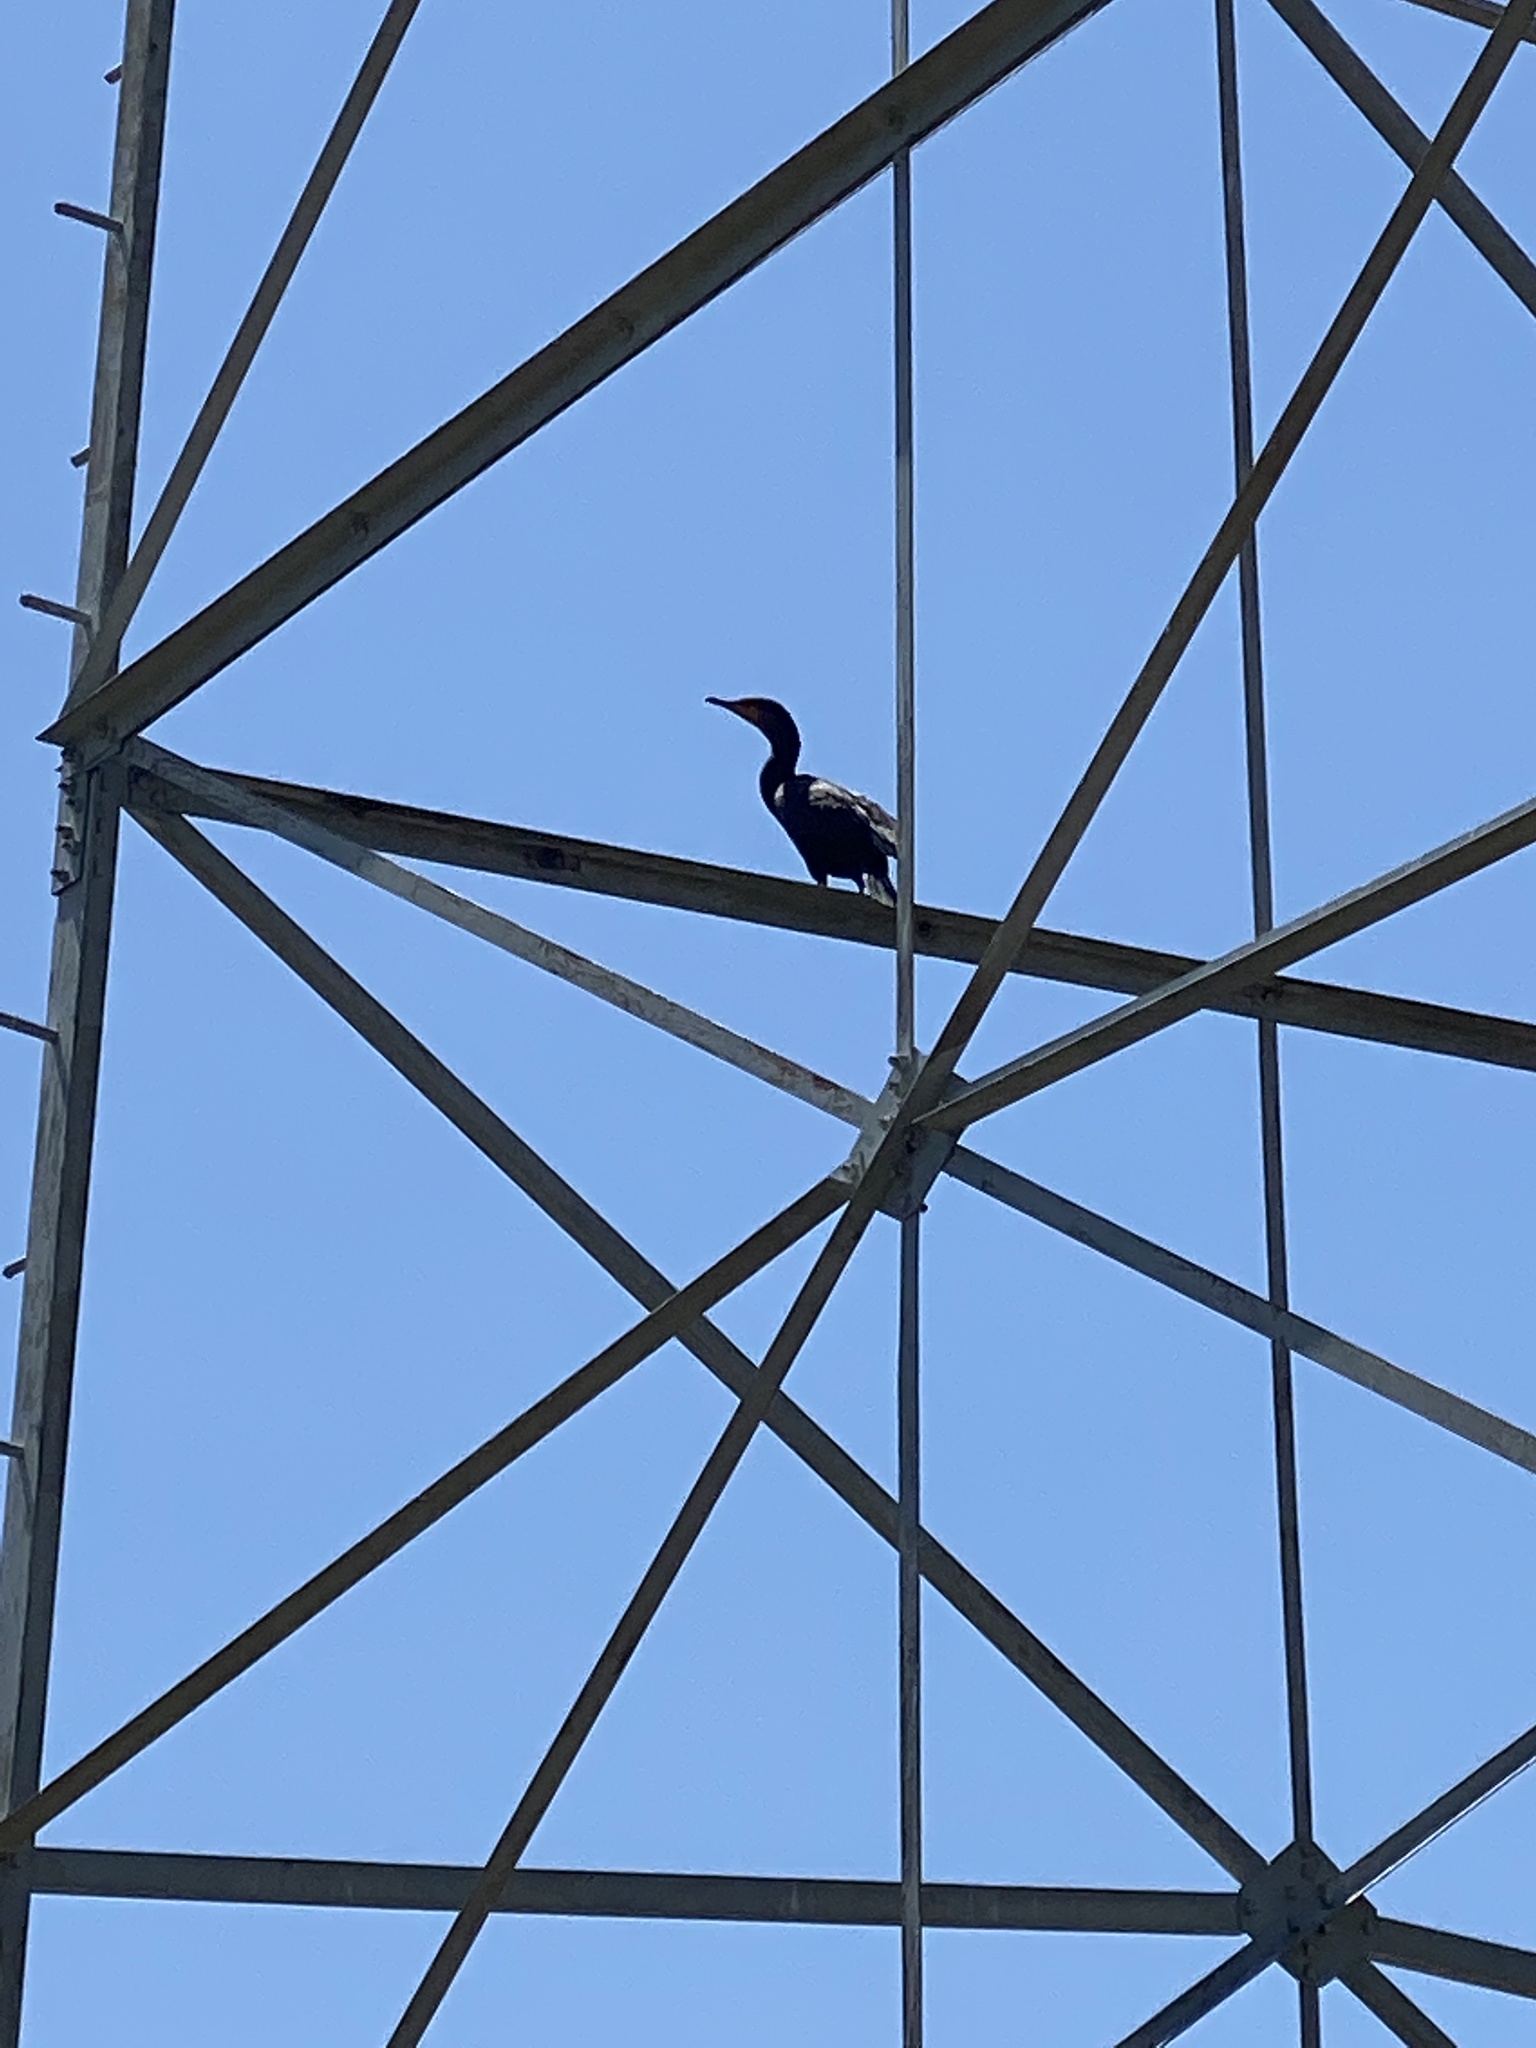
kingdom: Animalia
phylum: Chordata
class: Aves
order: Suliformes
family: Phalacrocoracidae
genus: Phalacrocorax
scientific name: Phalacrocorax auritus
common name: Double-crested cormorant
